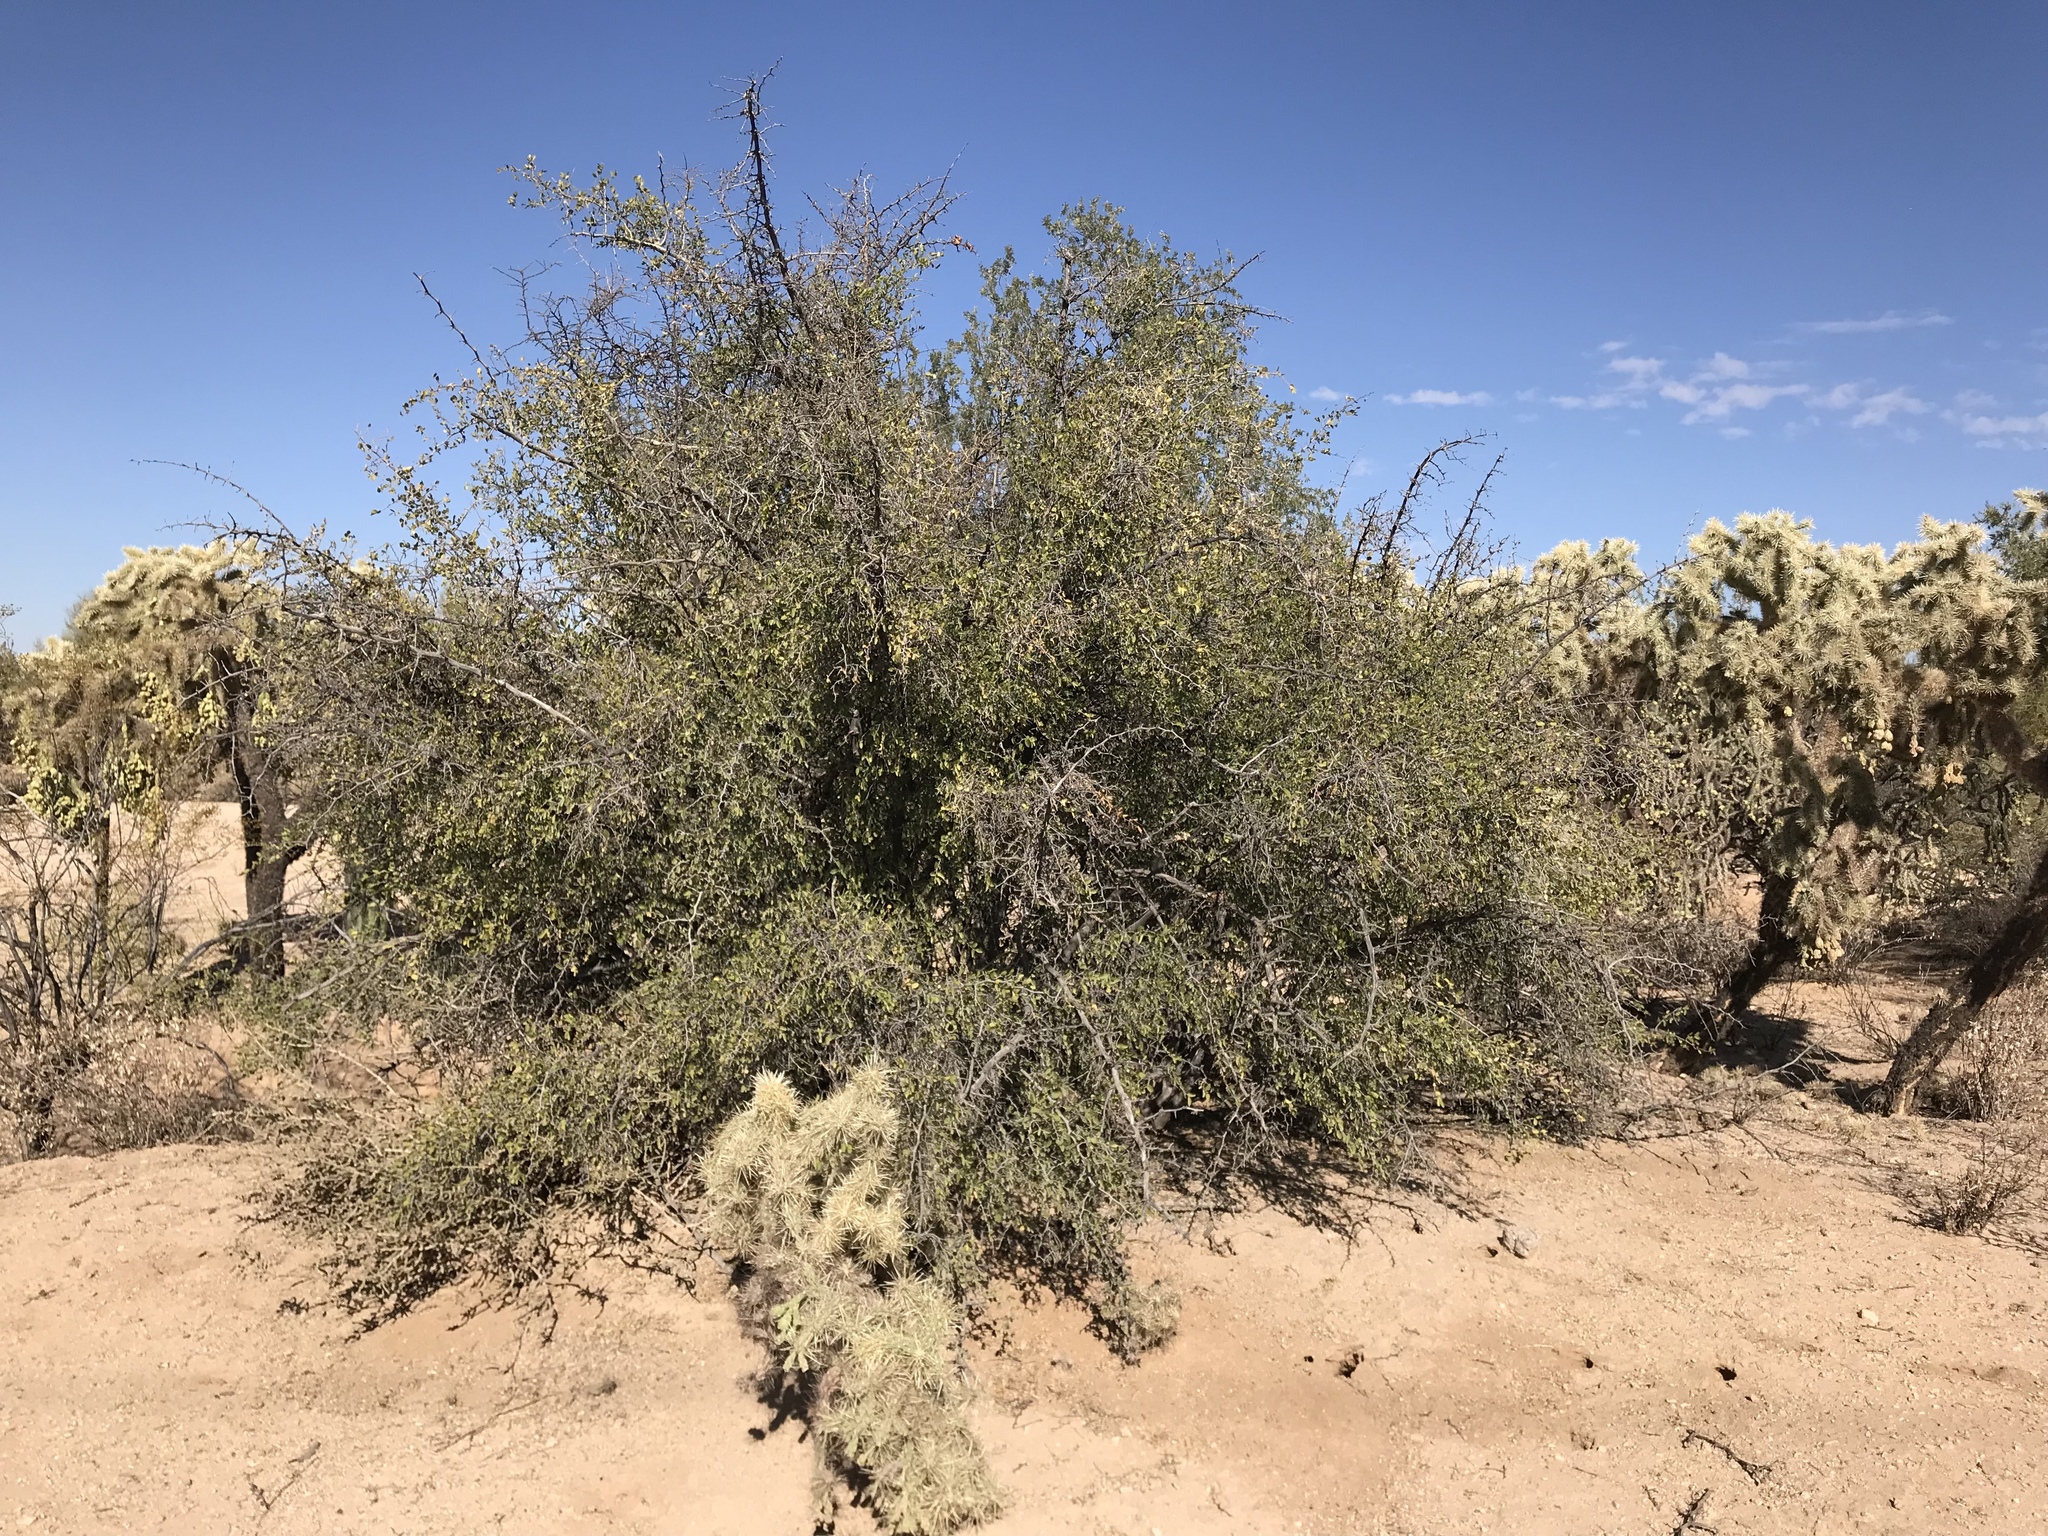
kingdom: Plantae
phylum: Tracheophyta
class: Magnoliopsida
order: Rosales
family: Cannabaceae
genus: Celtis
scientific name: Celtis pallida
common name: Desert hackberry
